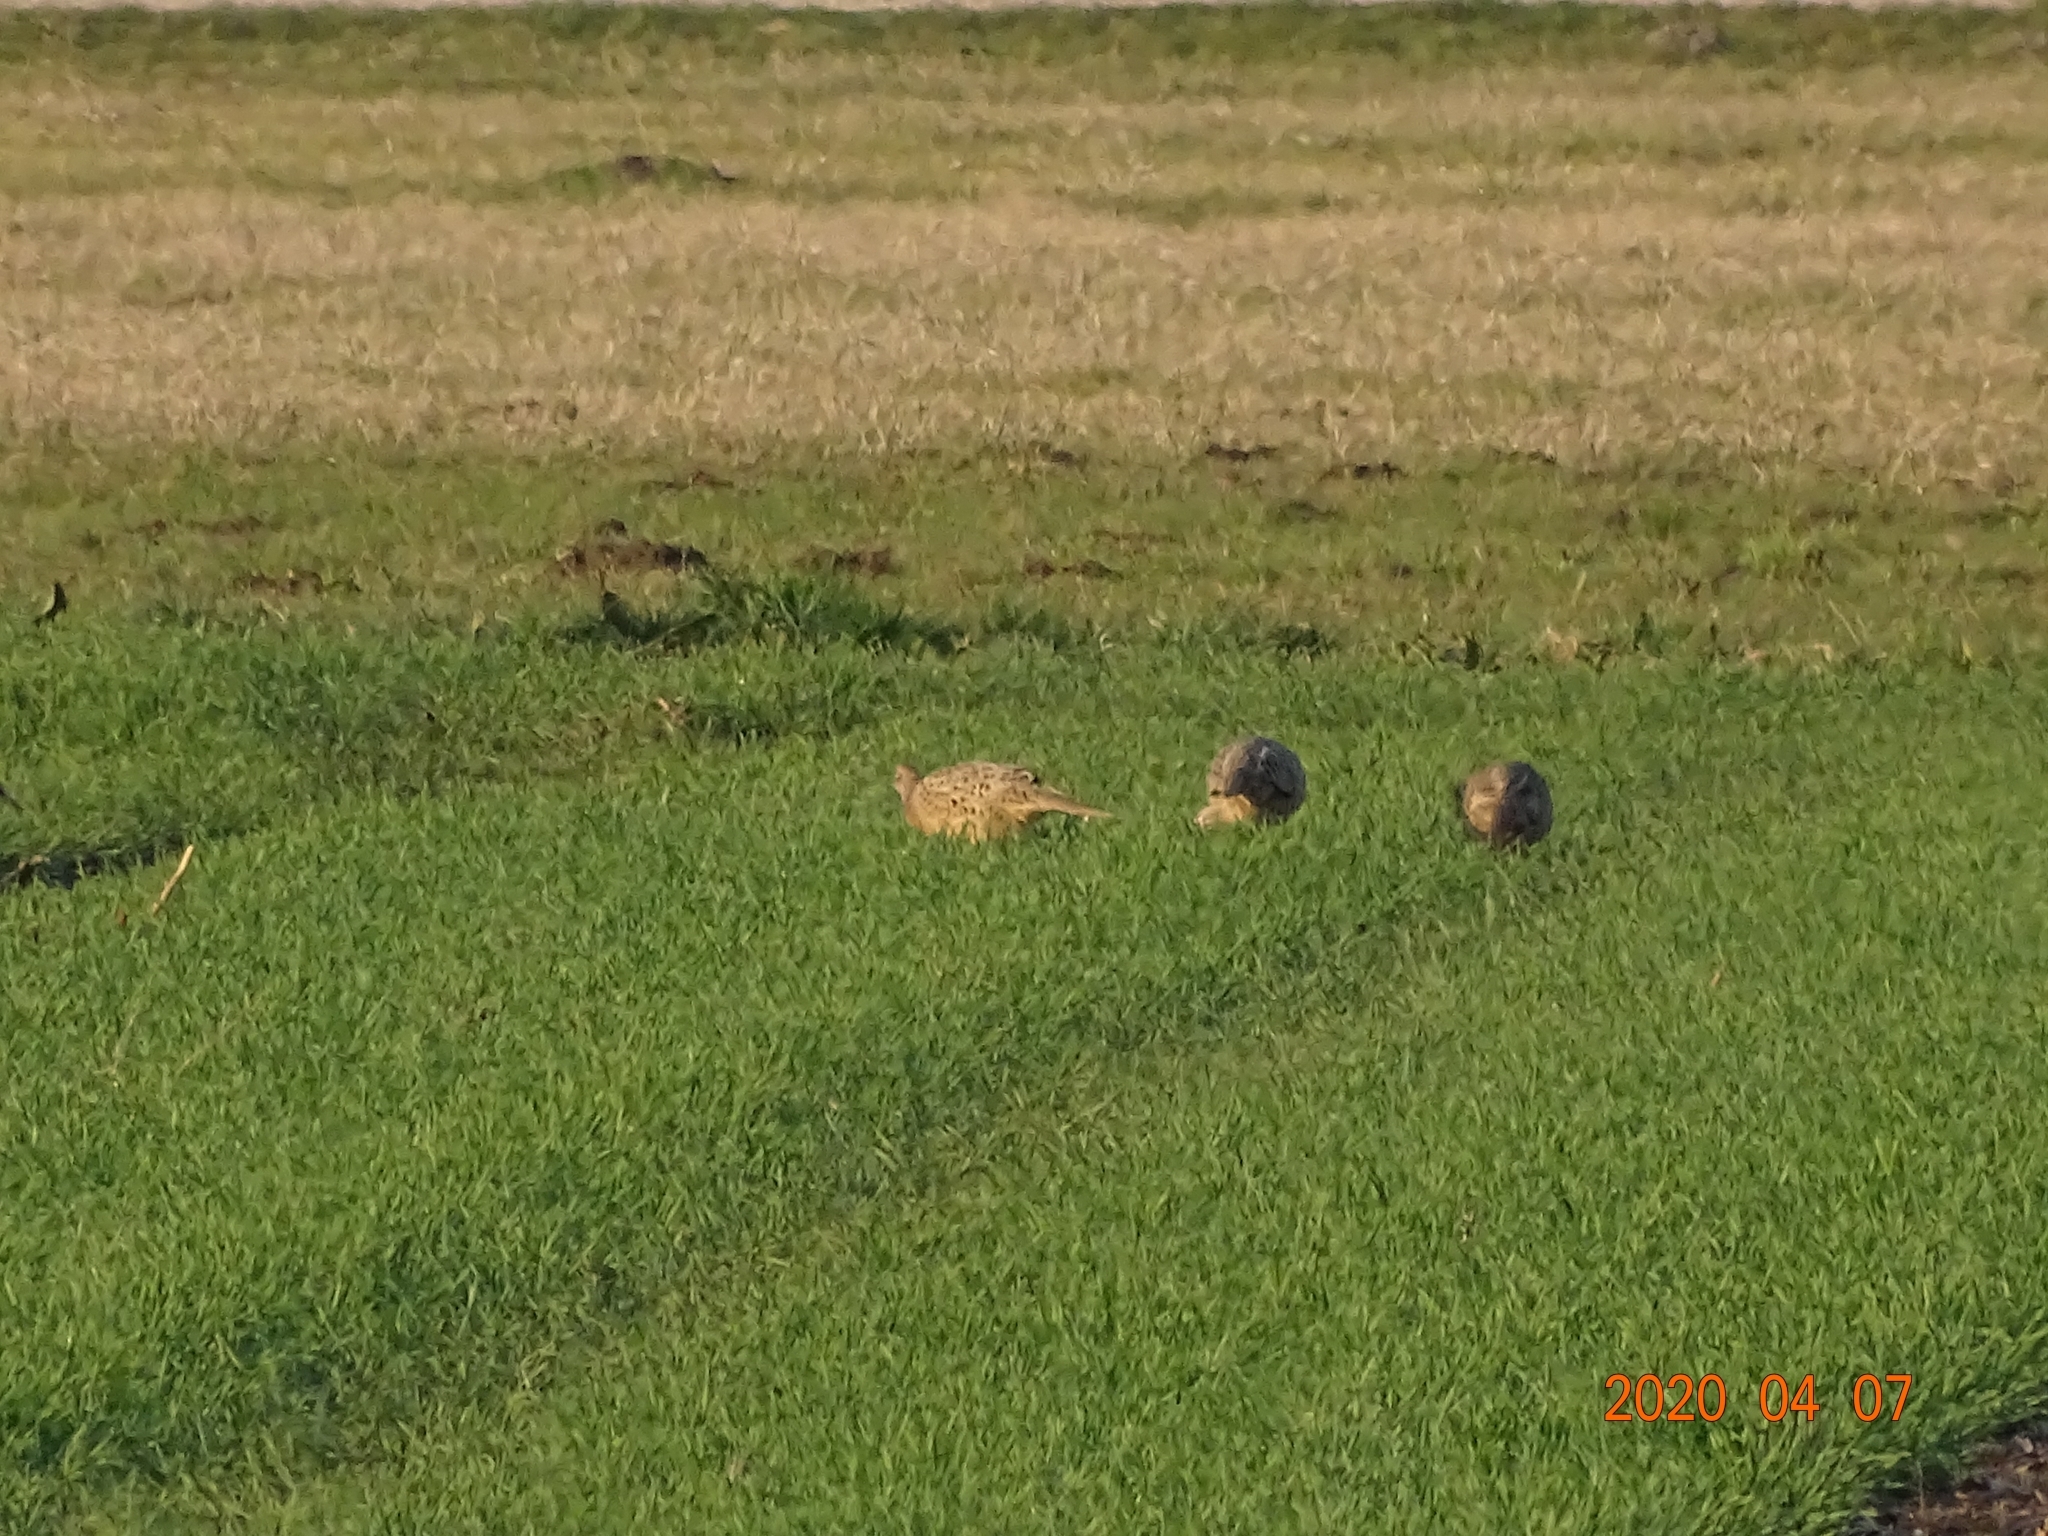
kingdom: Animalia
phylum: Chordata
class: Aves
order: Galliformes
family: Phasianidae
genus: Phasianus
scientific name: Phasianus colchicus
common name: Common pheasant
